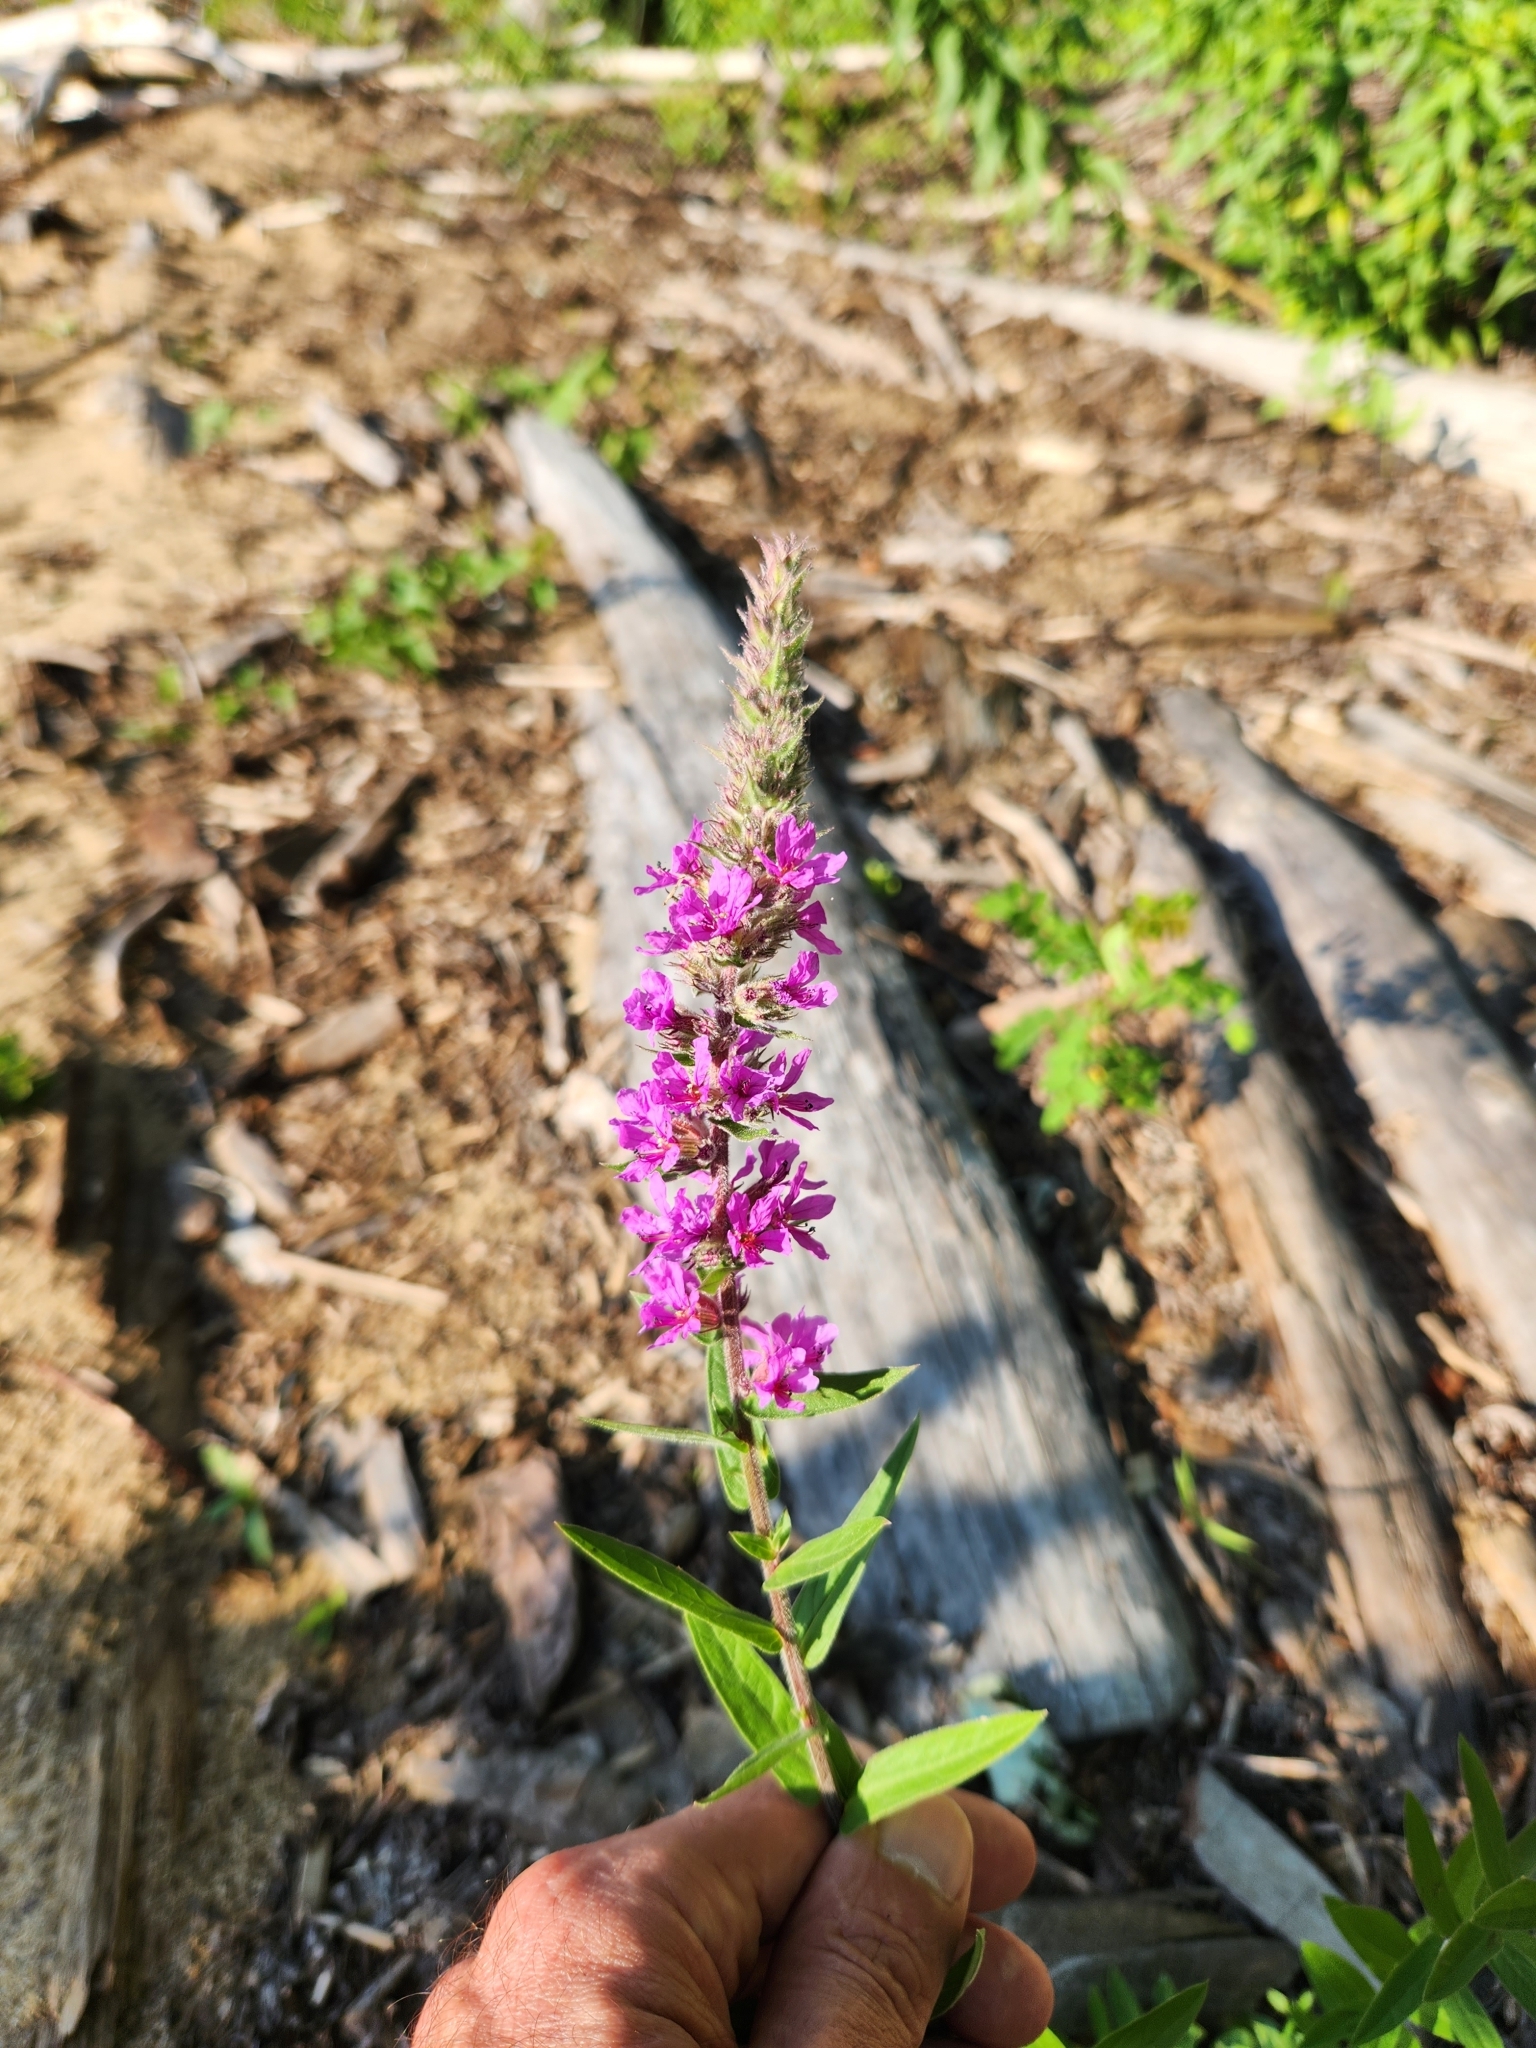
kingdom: Plantae
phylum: Tracheophyta
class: Magnoliopsida
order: Myrtales
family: Lythraceae
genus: Lythrum
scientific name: Lythrum salicaria
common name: Purple loosestrife
